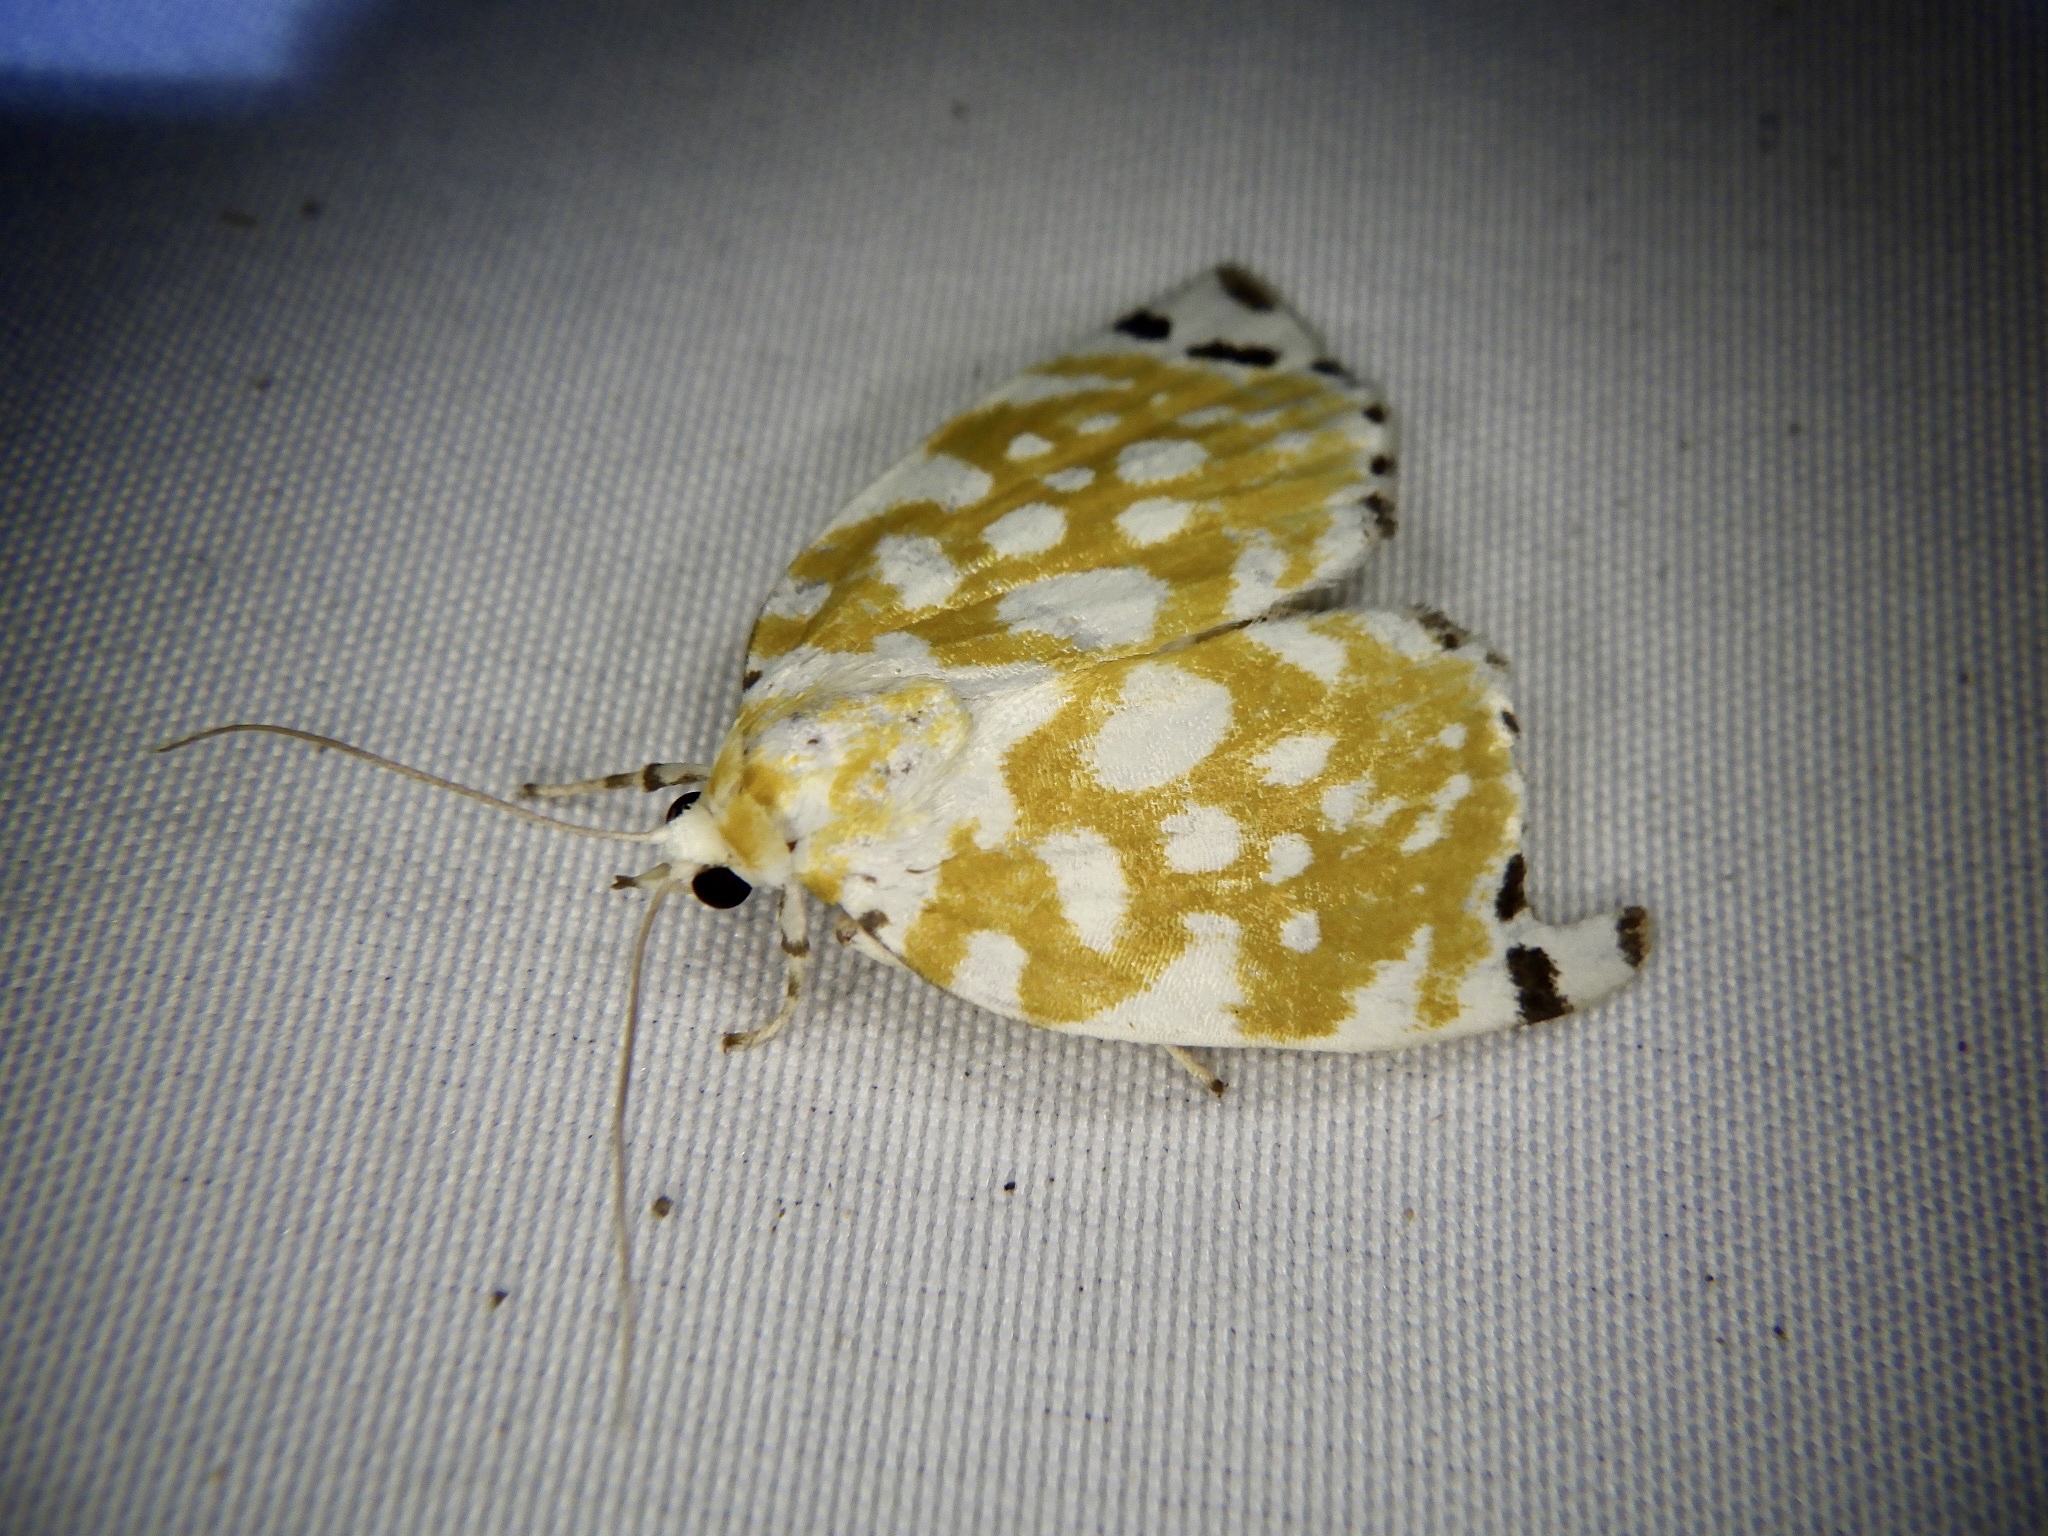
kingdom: Animalia
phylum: Arthropoda
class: Insecta
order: Lepidoptera
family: Nolidae
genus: Sinna
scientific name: Sinna extrema
